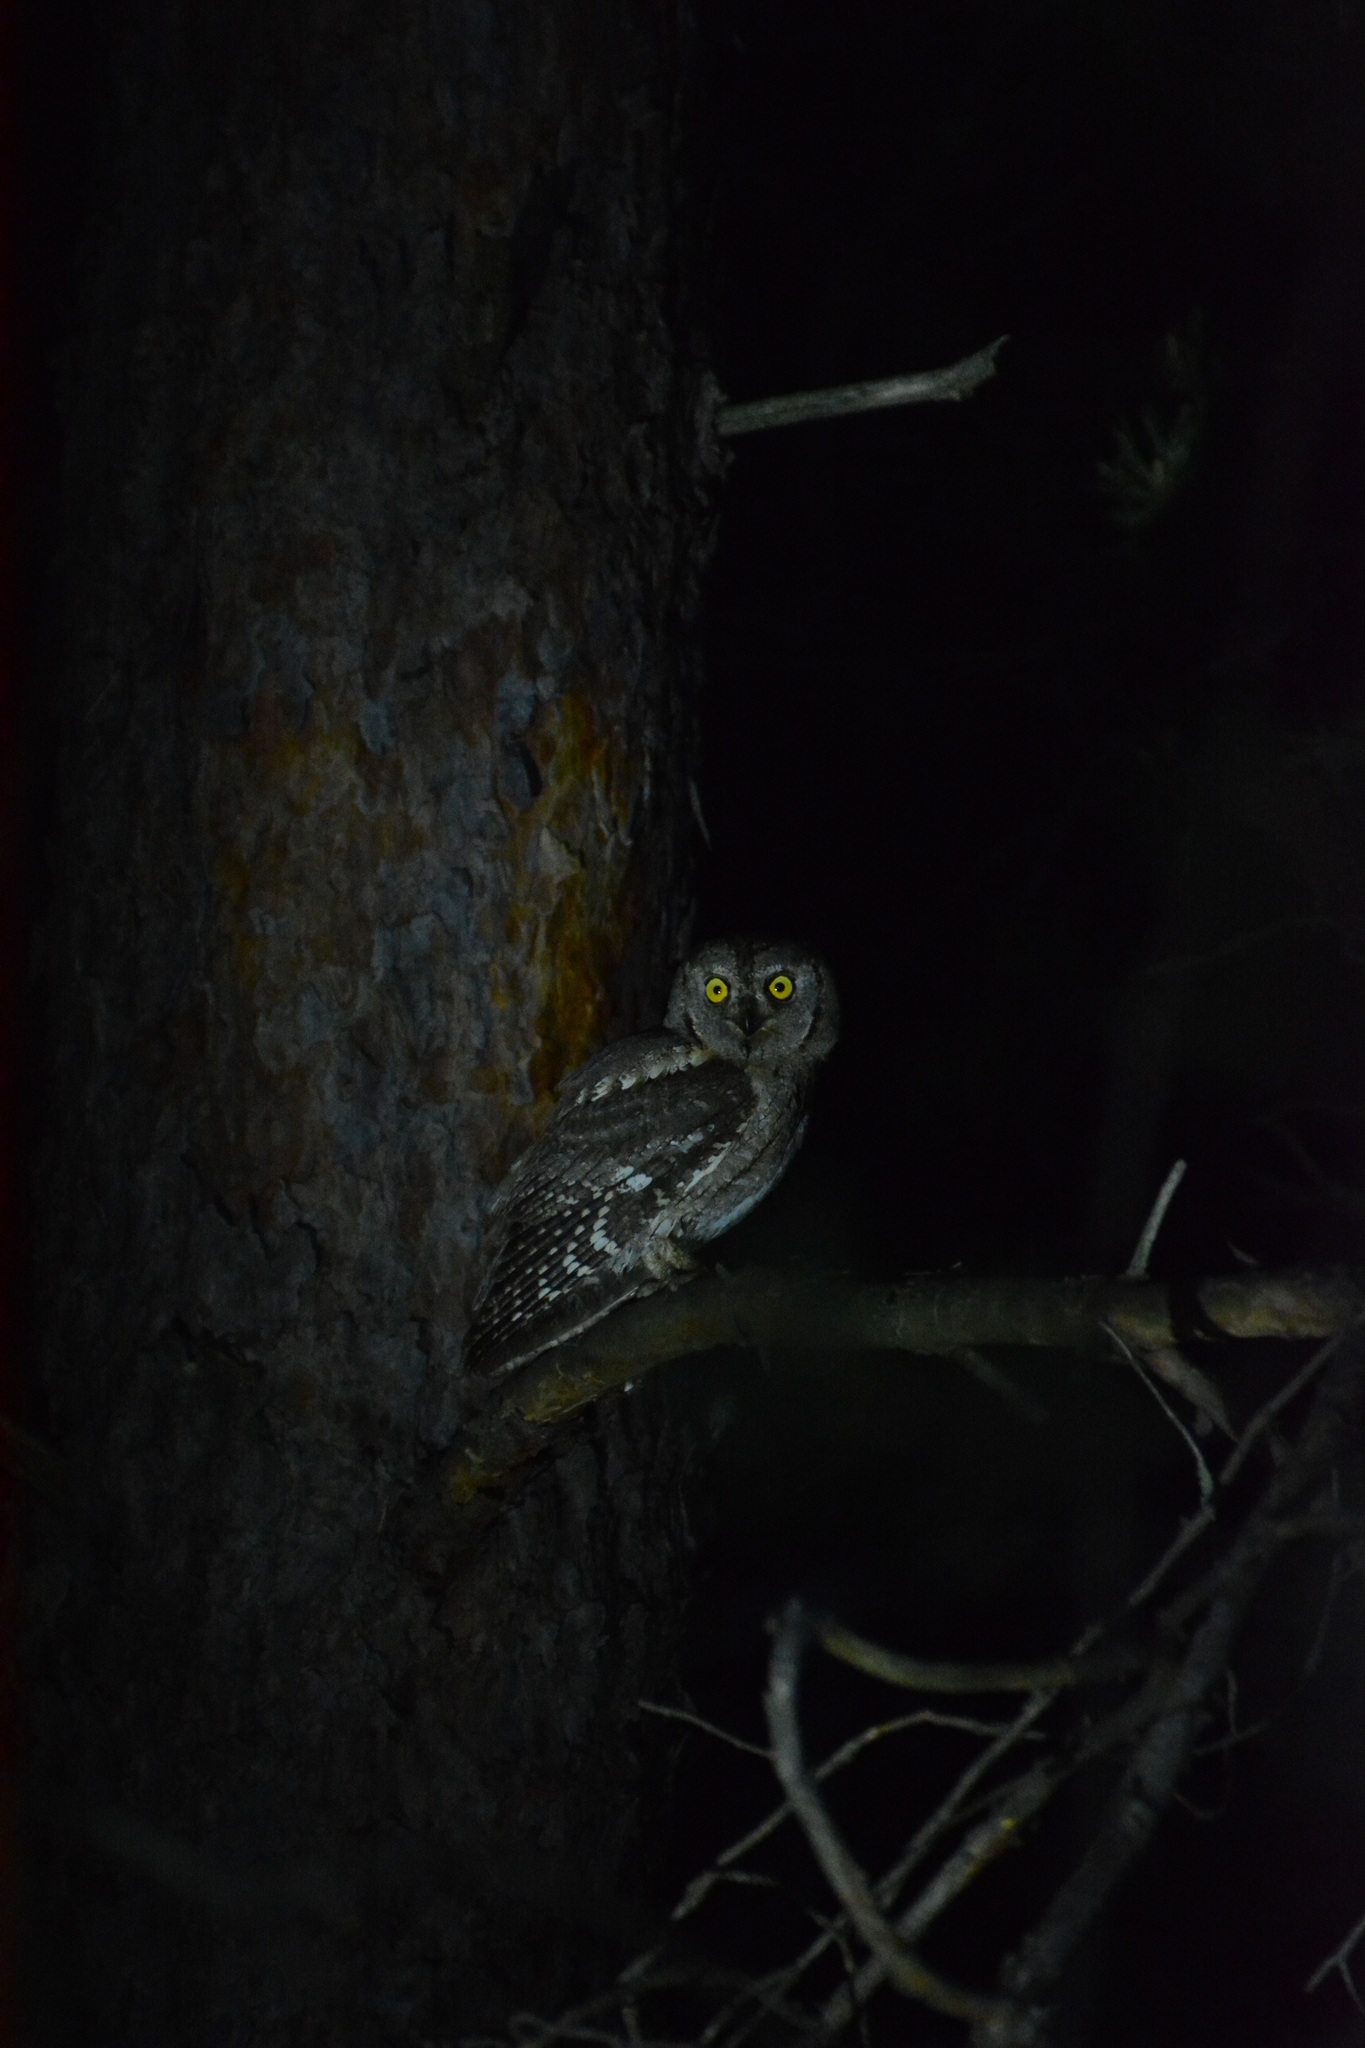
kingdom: Animalia
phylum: Chordata
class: Aves
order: Strigiformes
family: Strigidae
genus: Otus
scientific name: Otus scops
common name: Eurasian scops owl
